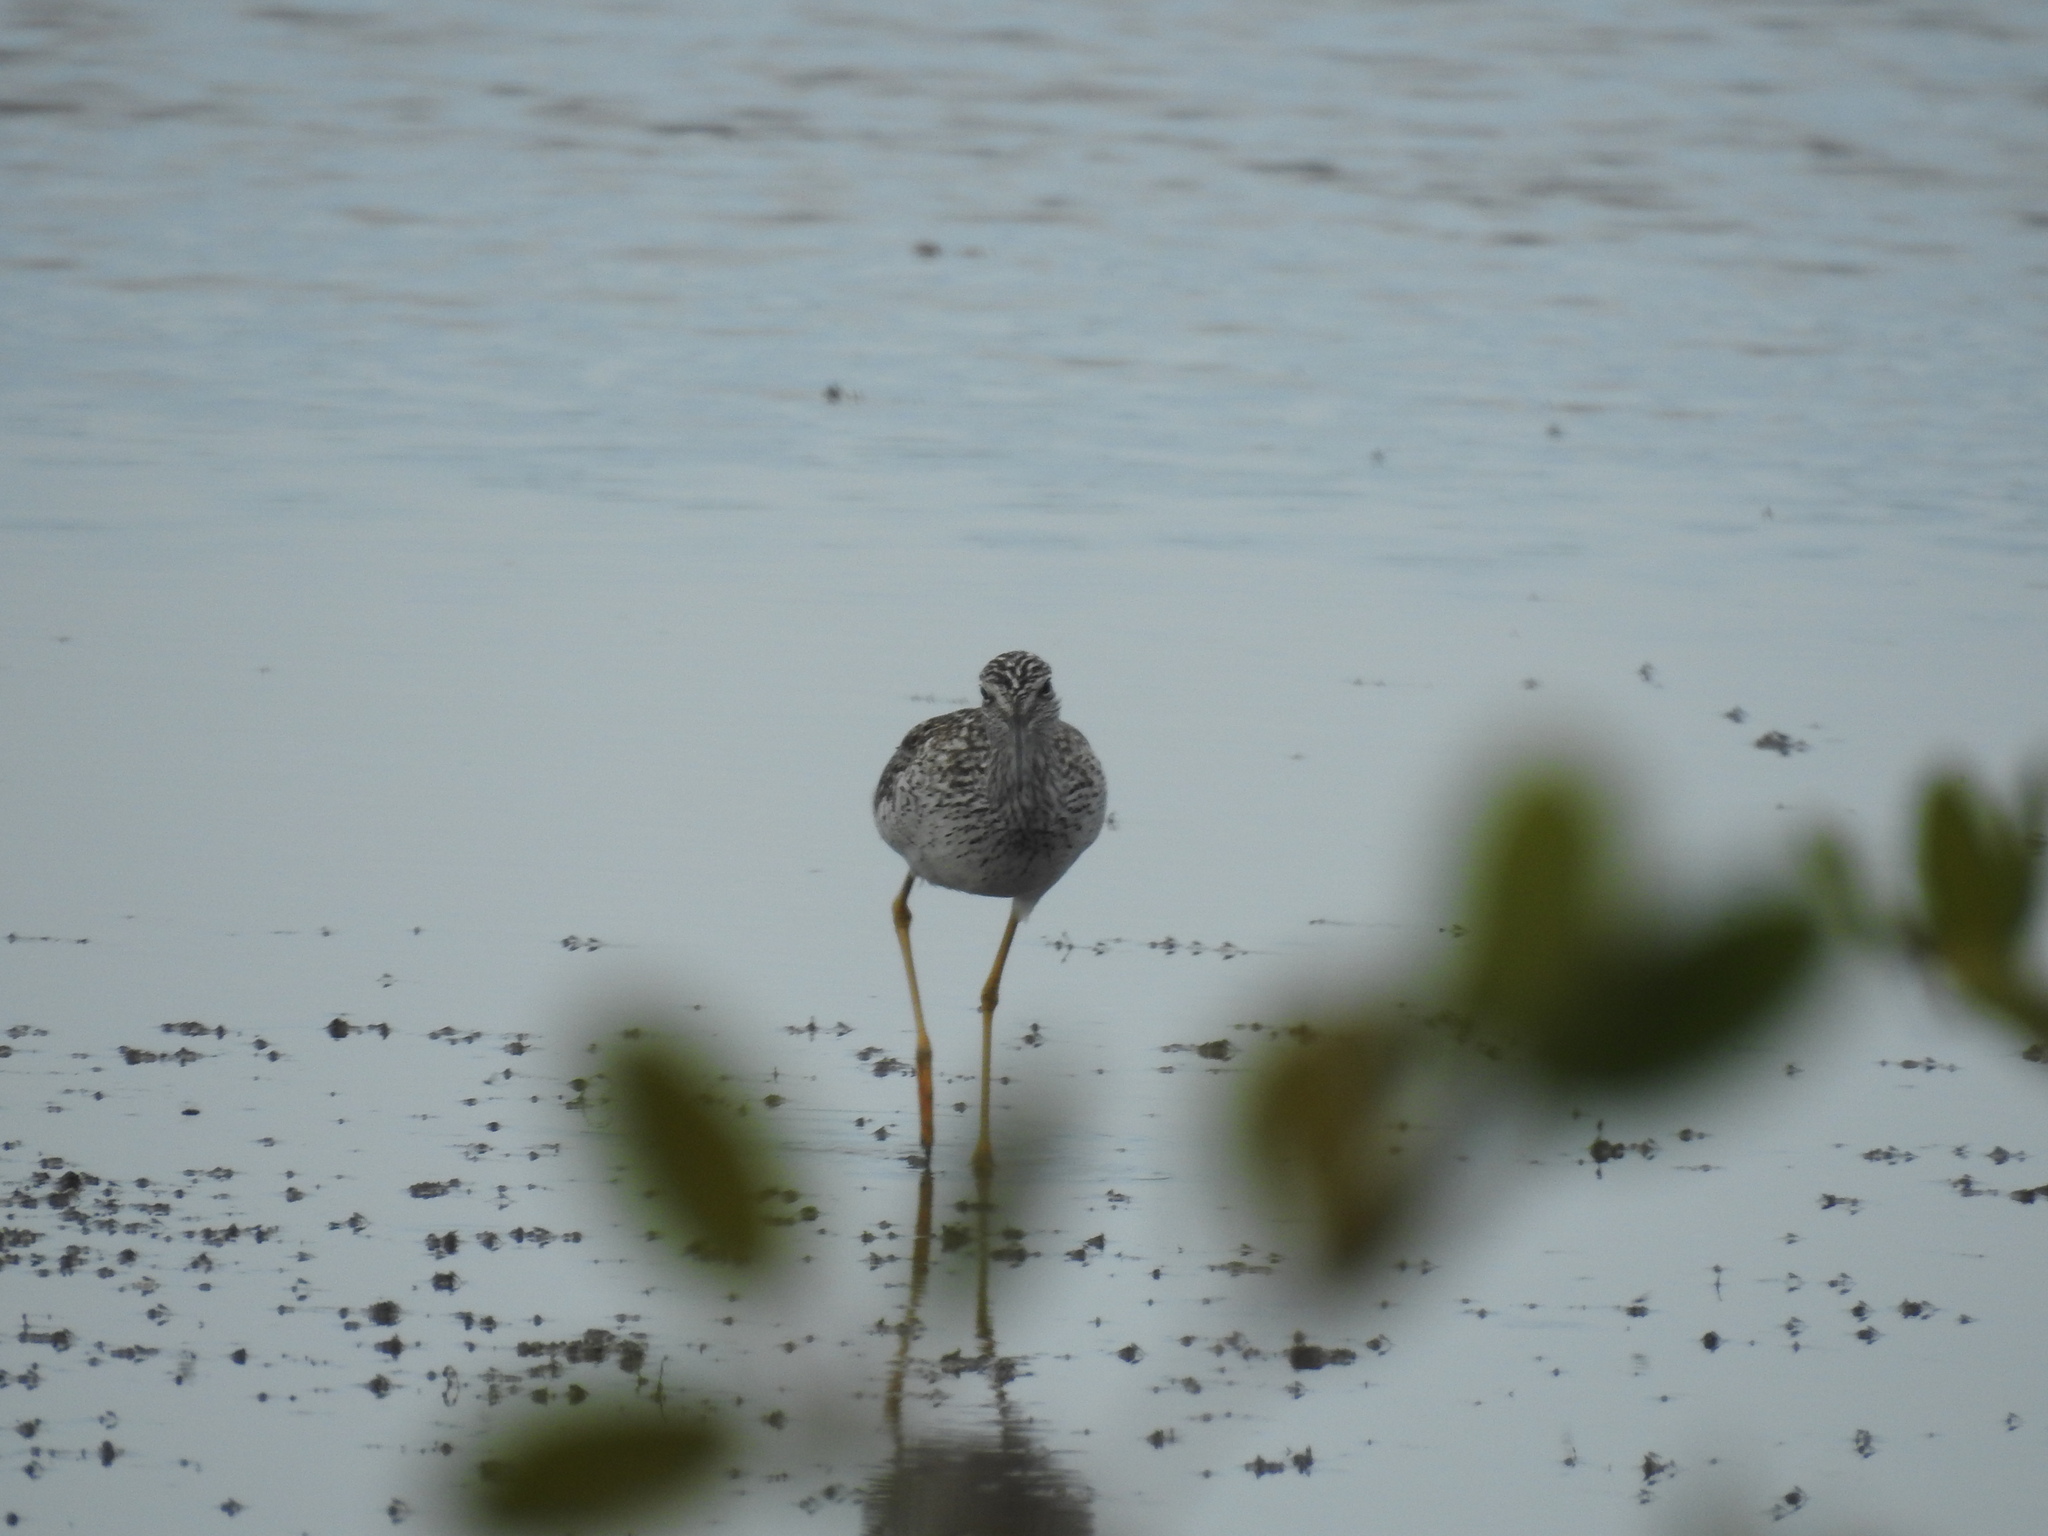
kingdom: Animalia
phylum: Chordata
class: Aves
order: Charadriiformes
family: Scolopacidae
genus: Tringa
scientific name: Tringa melanoleuca
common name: Greater yellowlegs
